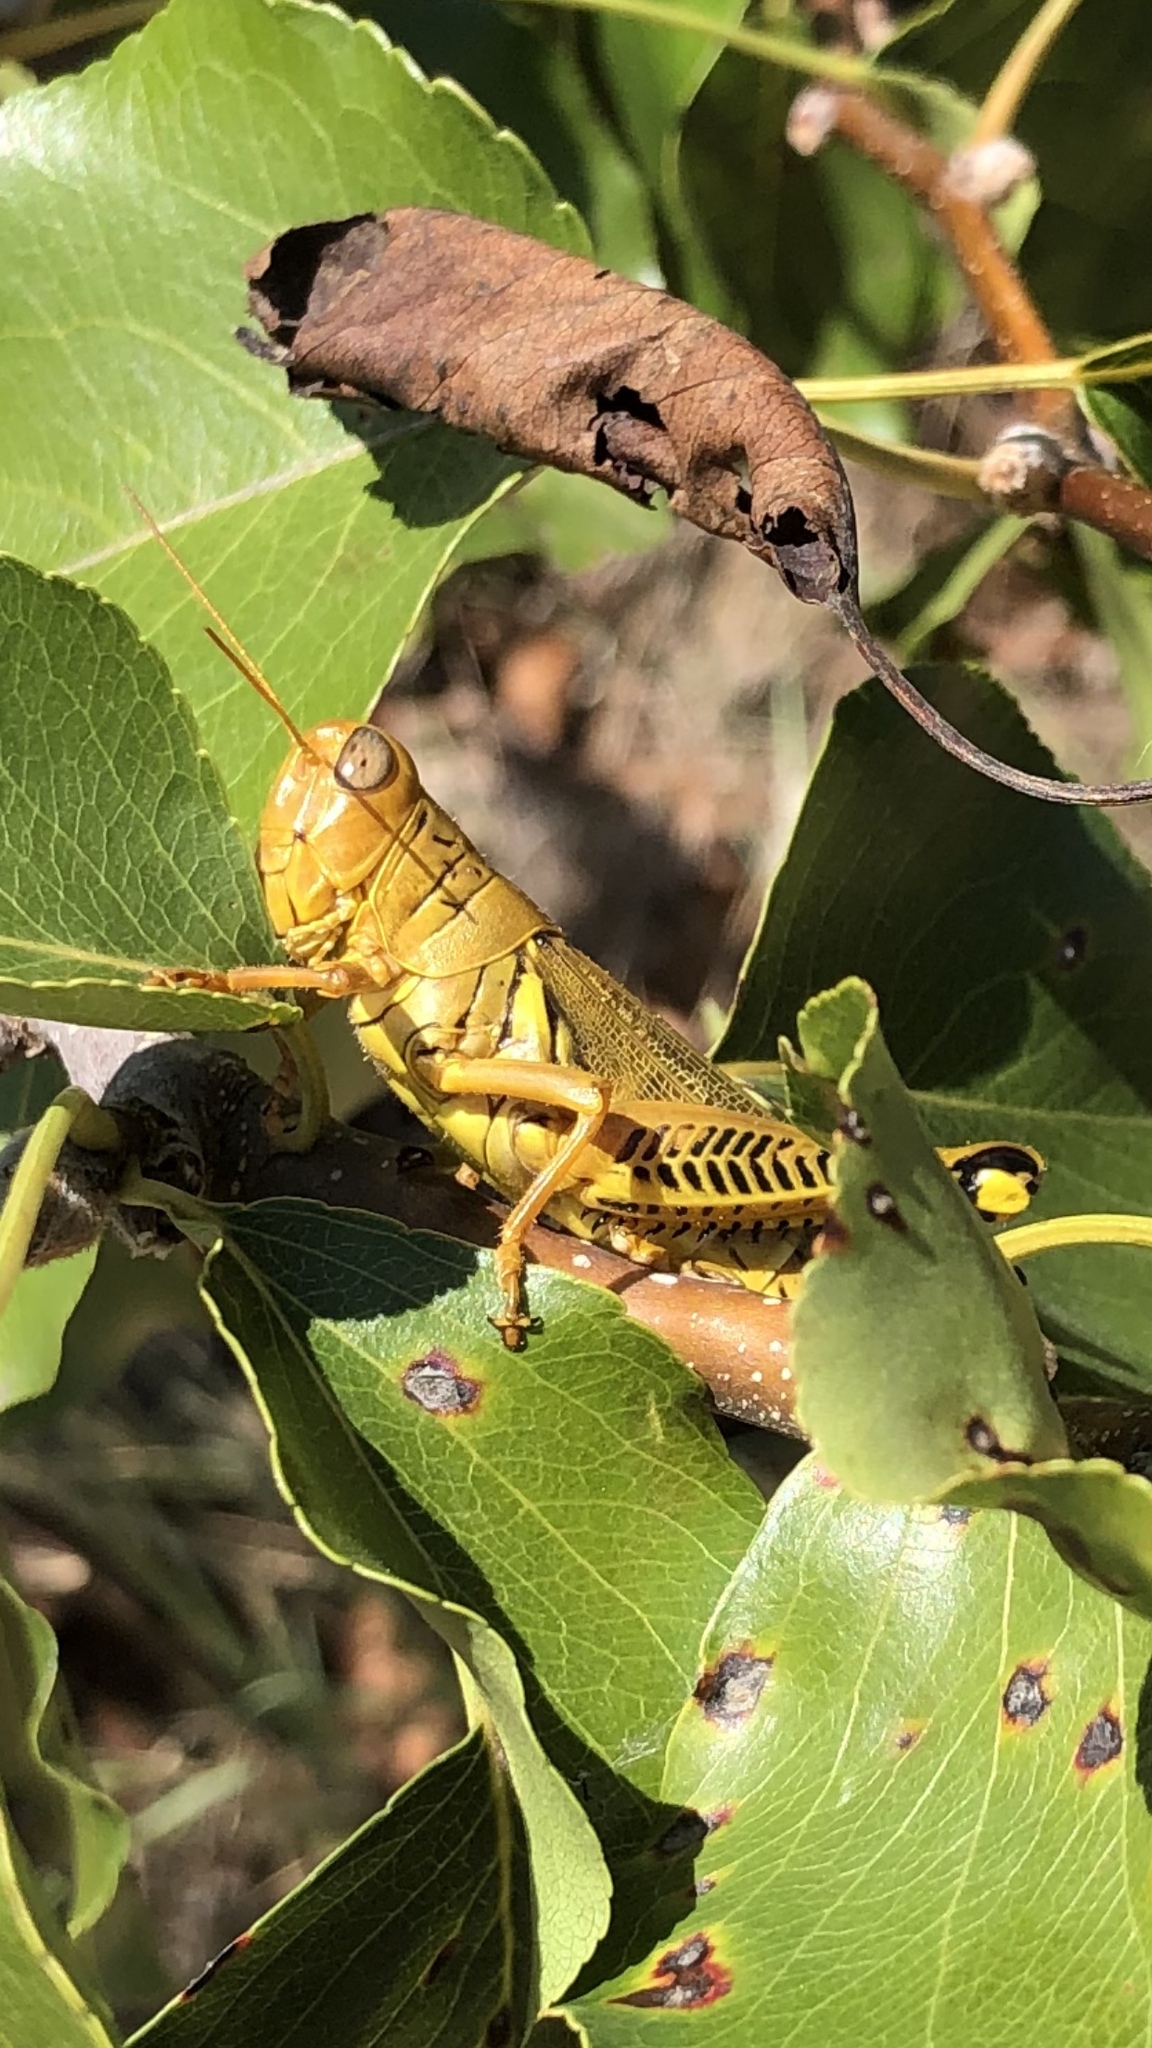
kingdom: Animalia
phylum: Arthropoda
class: Insecta
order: Orthoptera
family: Acrididae
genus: Melanoplus
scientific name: Melanoplus differentialis
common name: Differential grasshopper
